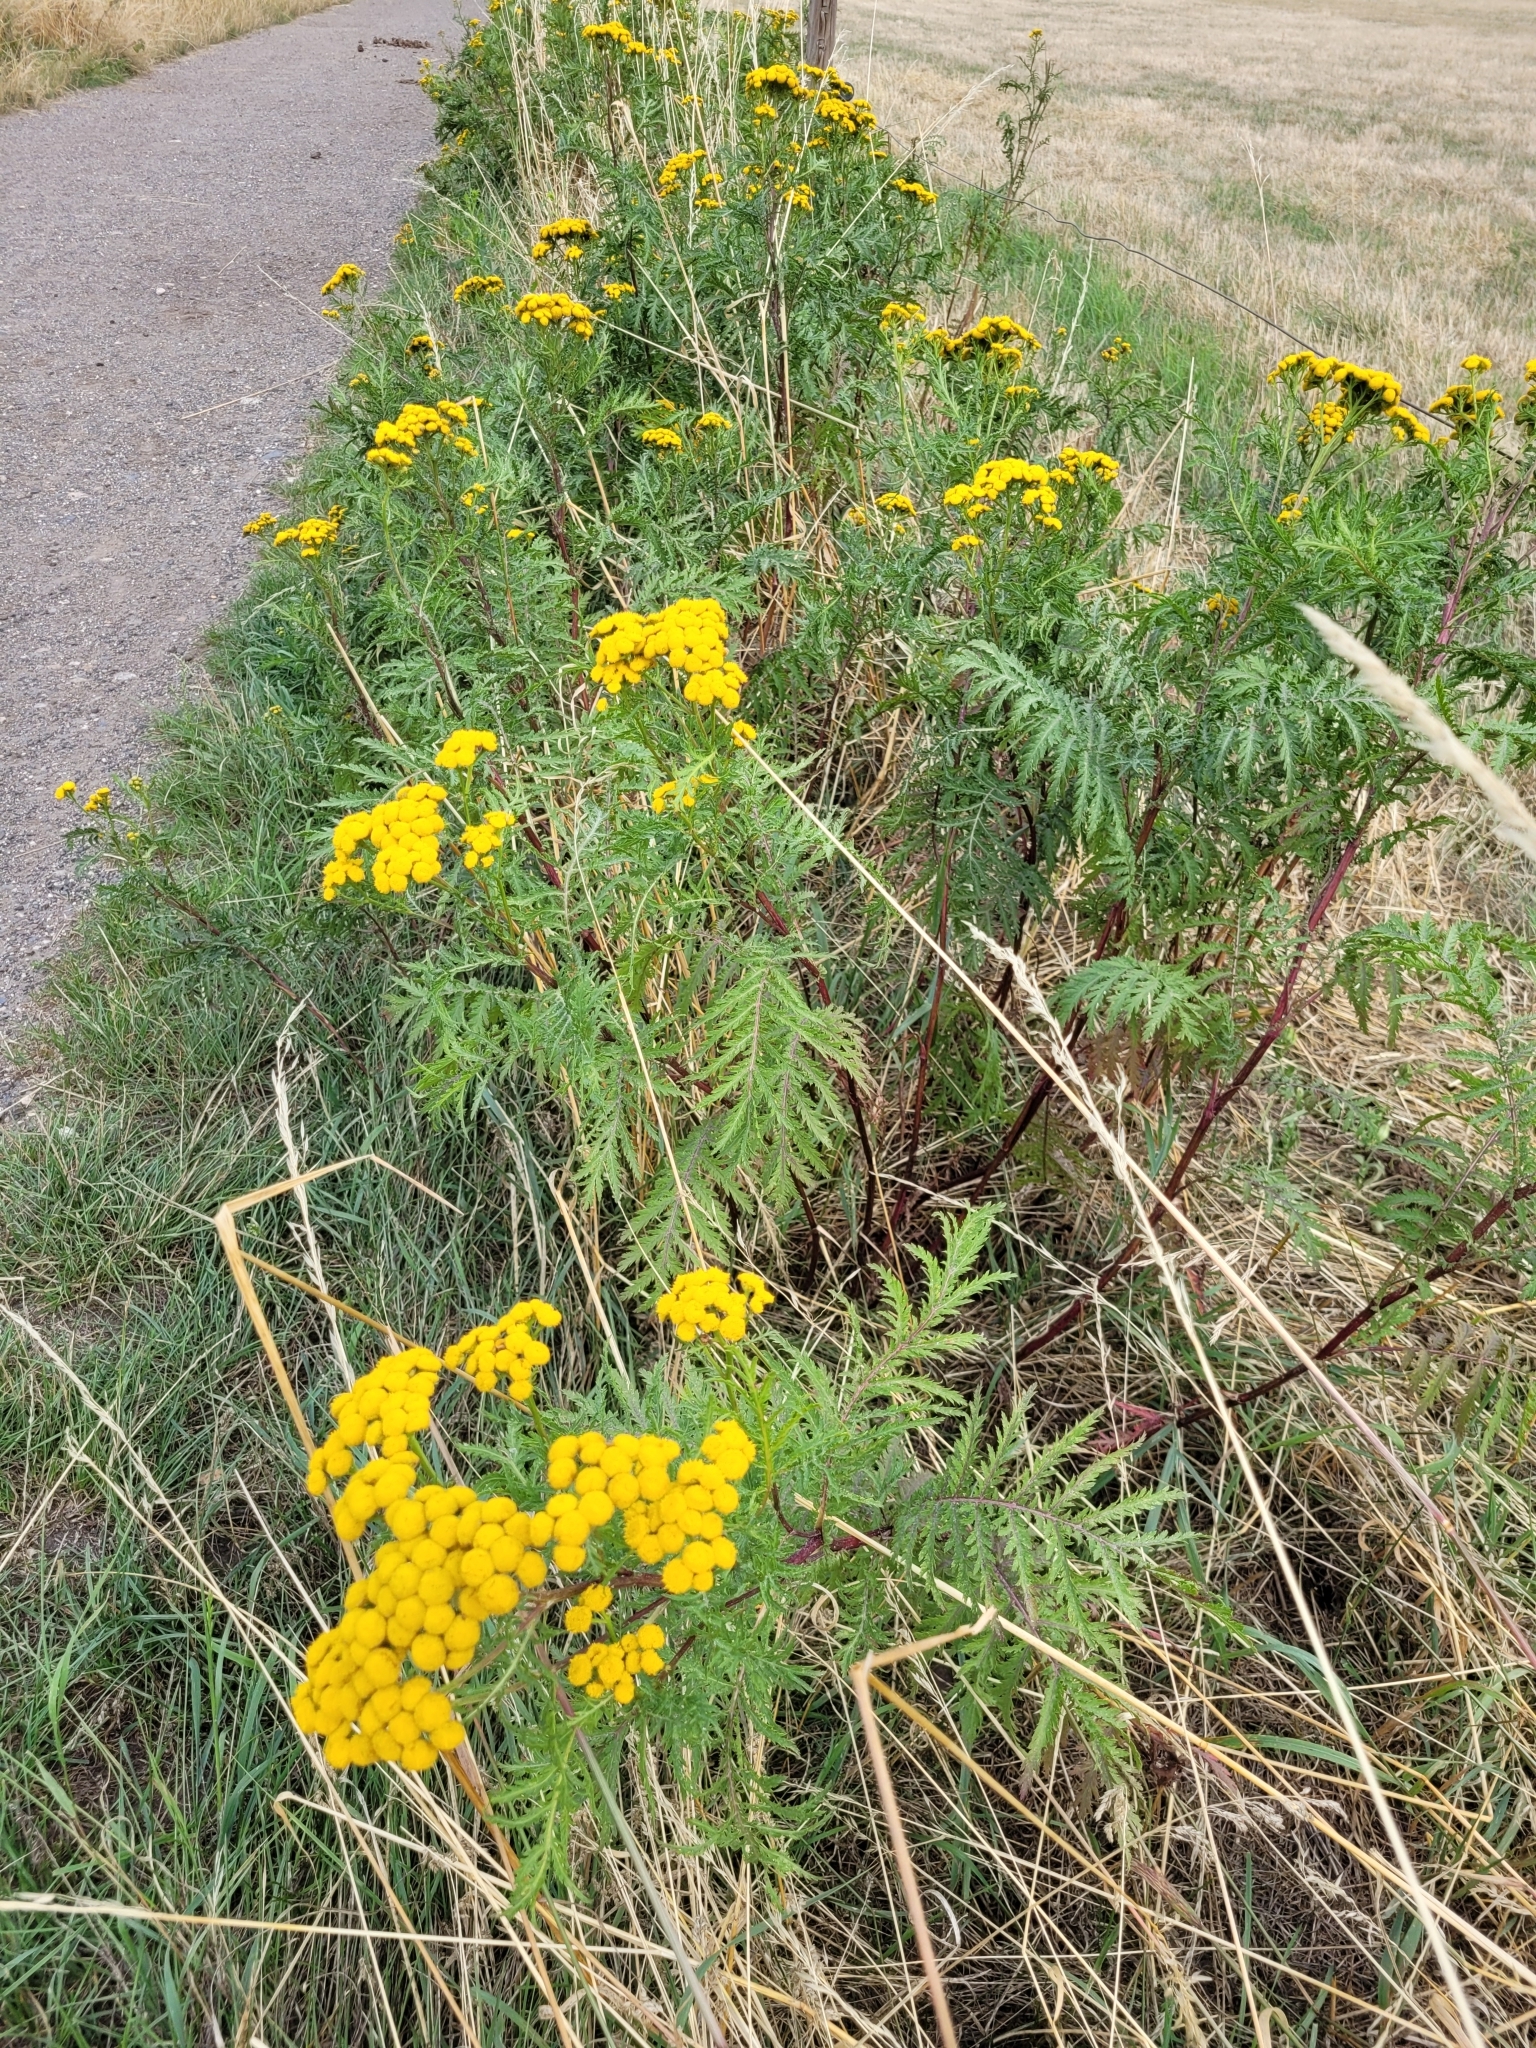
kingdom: Plantae
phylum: Tracheophyta
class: Magnoliopsida
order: Asterales
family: Asteraceae
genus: Tanacetum
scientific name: Tanacetum vulgare
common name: Common tansy
